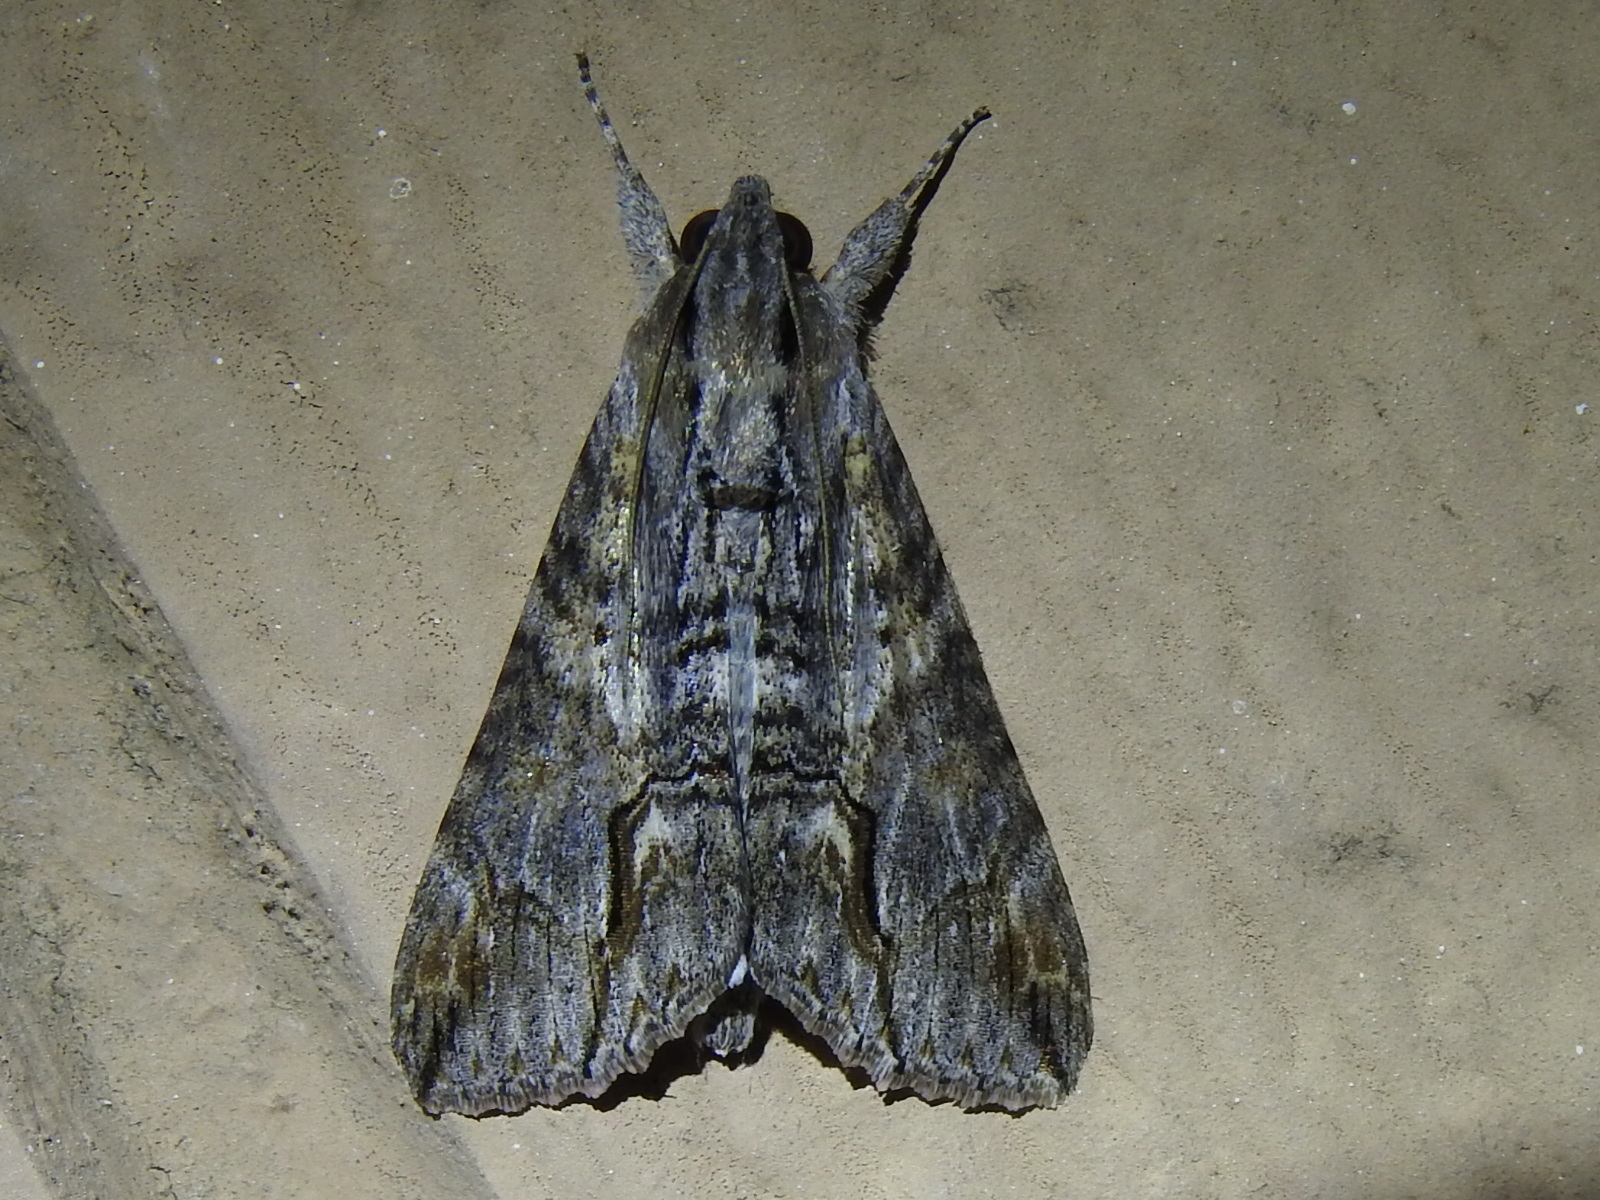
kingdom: Animalia
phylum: Arthropoda
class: Insecta
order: Lepidoptera
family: Erebidae
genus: Melipotis
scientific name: Melipotis acontioides
